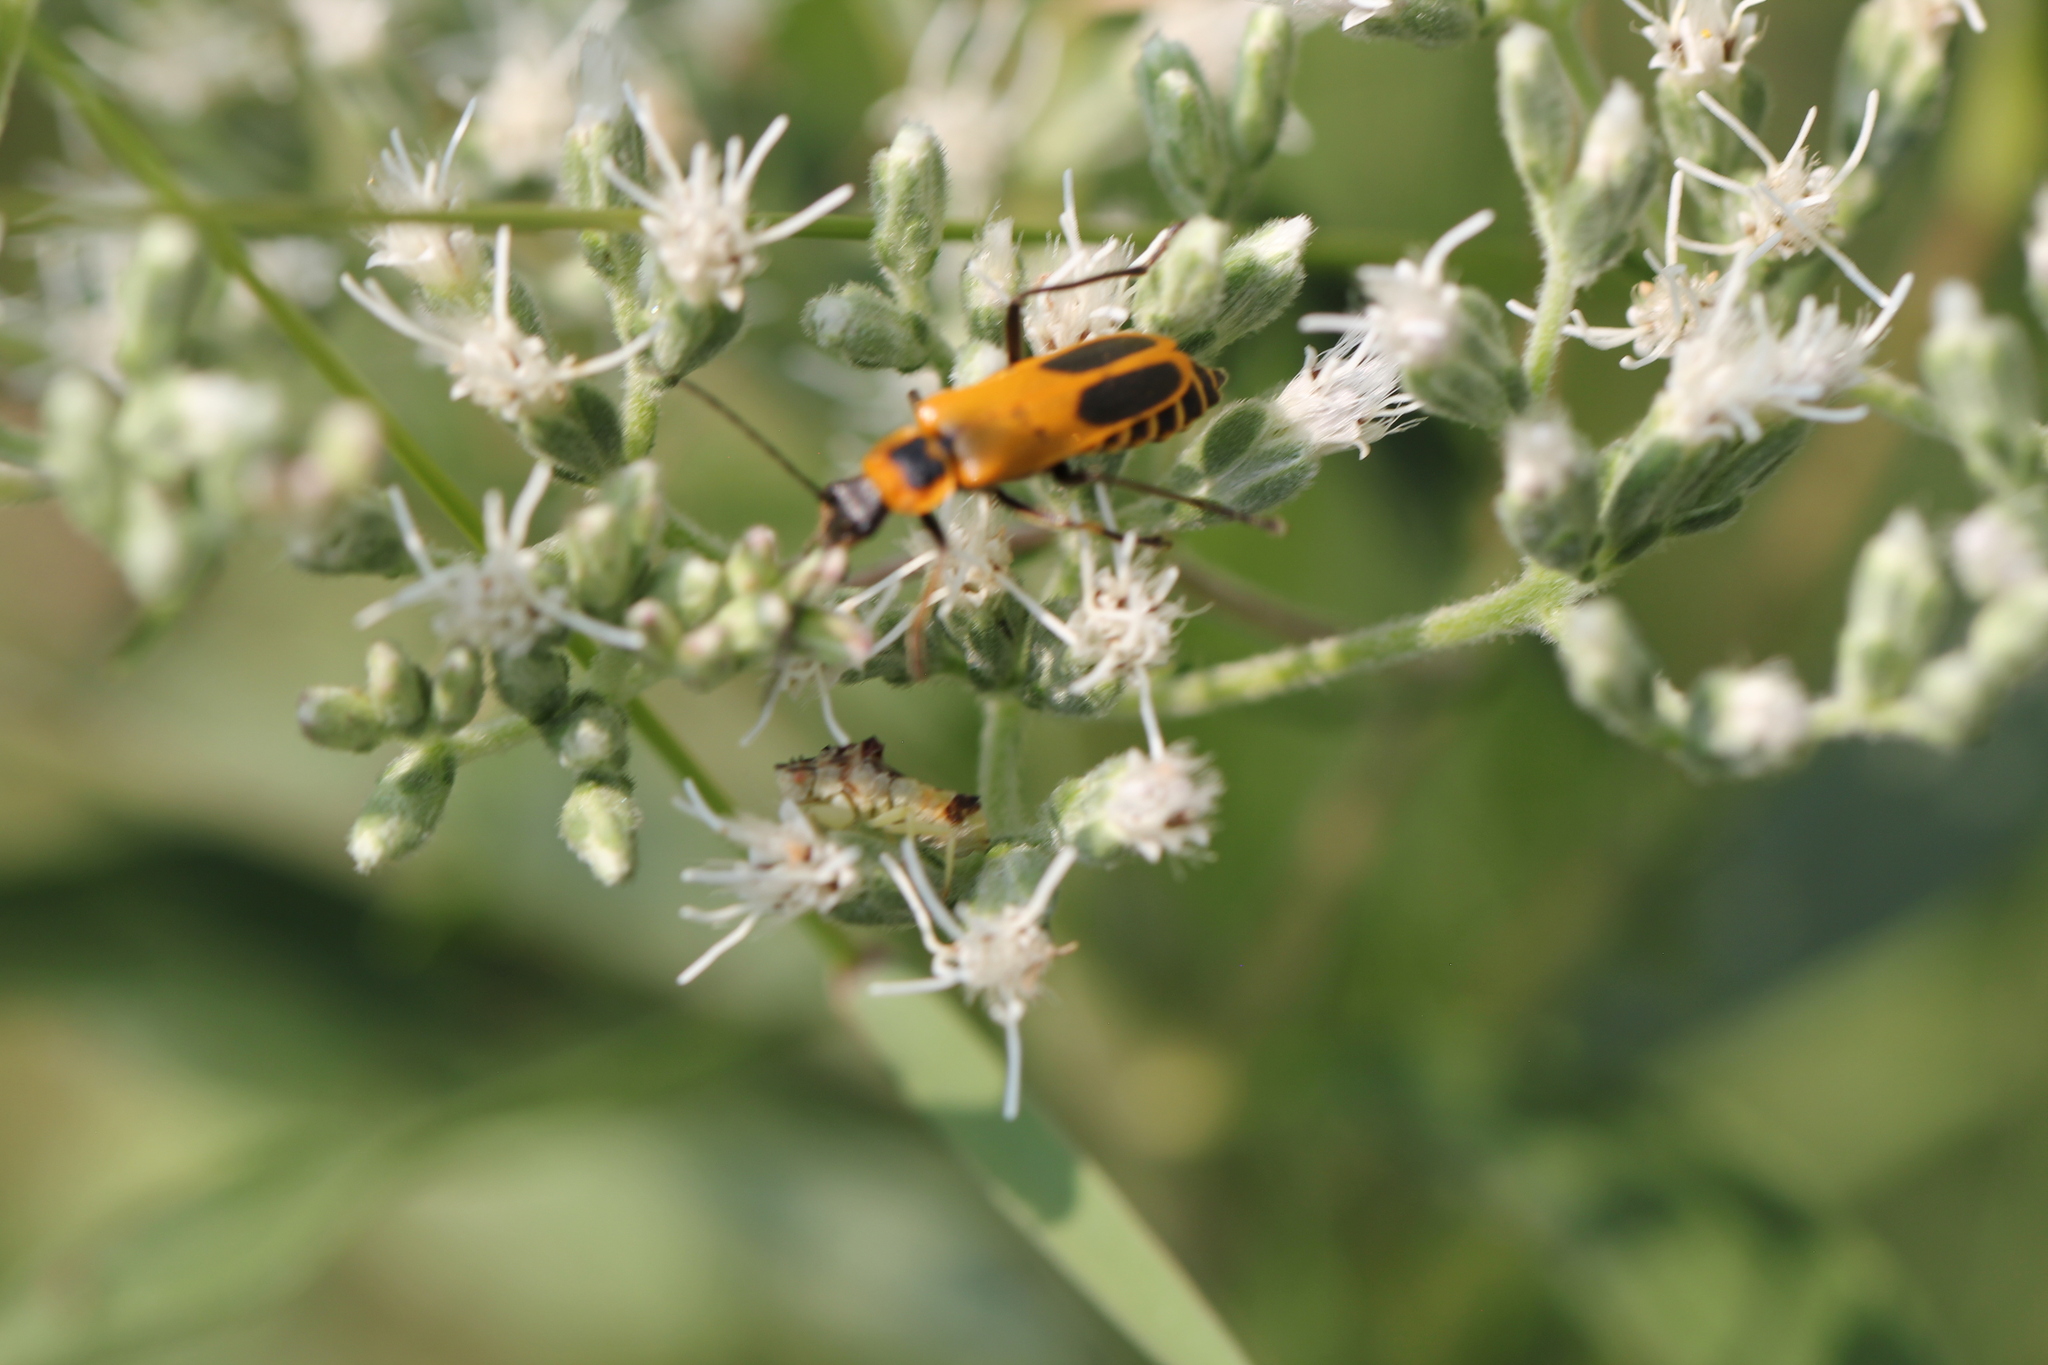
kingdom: Animalia
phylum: Arthropoda
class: Insecta
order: Coleoptera
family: Cantharidae
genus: Chauliognathus
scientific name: Chauliognathus pensylvanicus
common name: Goldenrod soldier beetle
